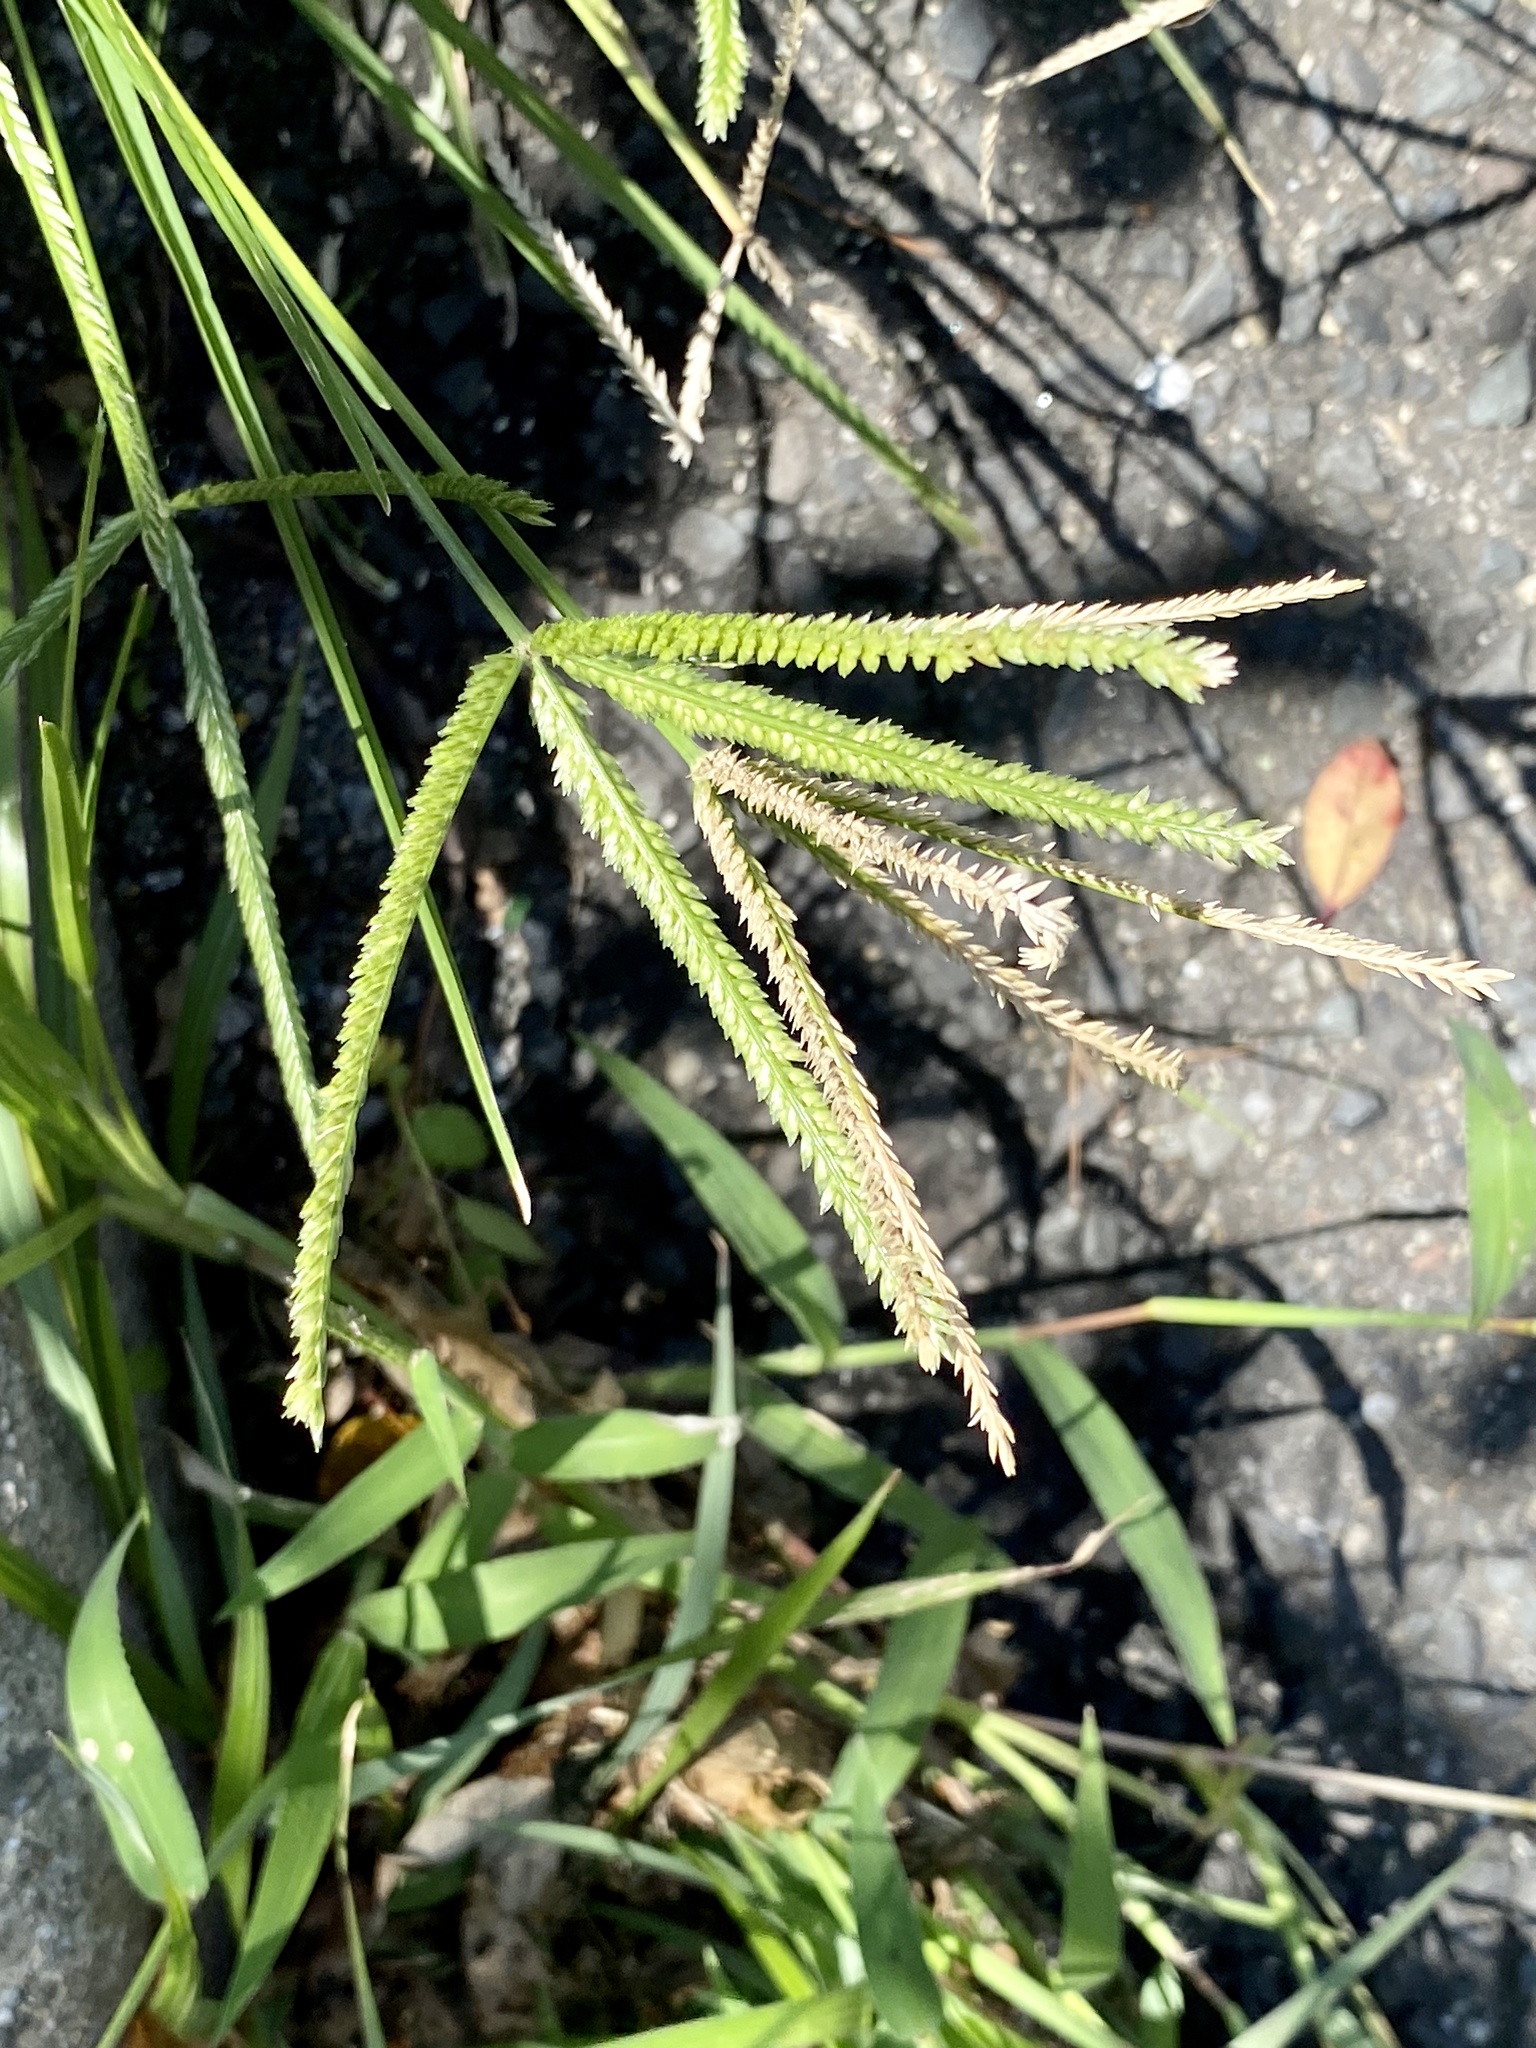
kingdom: Plantae
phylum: Tracheophyta
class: Liliopsida
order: Poales
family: Poaceae
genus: Eleusine
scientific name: Eleusine indica
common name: Yard-grass
